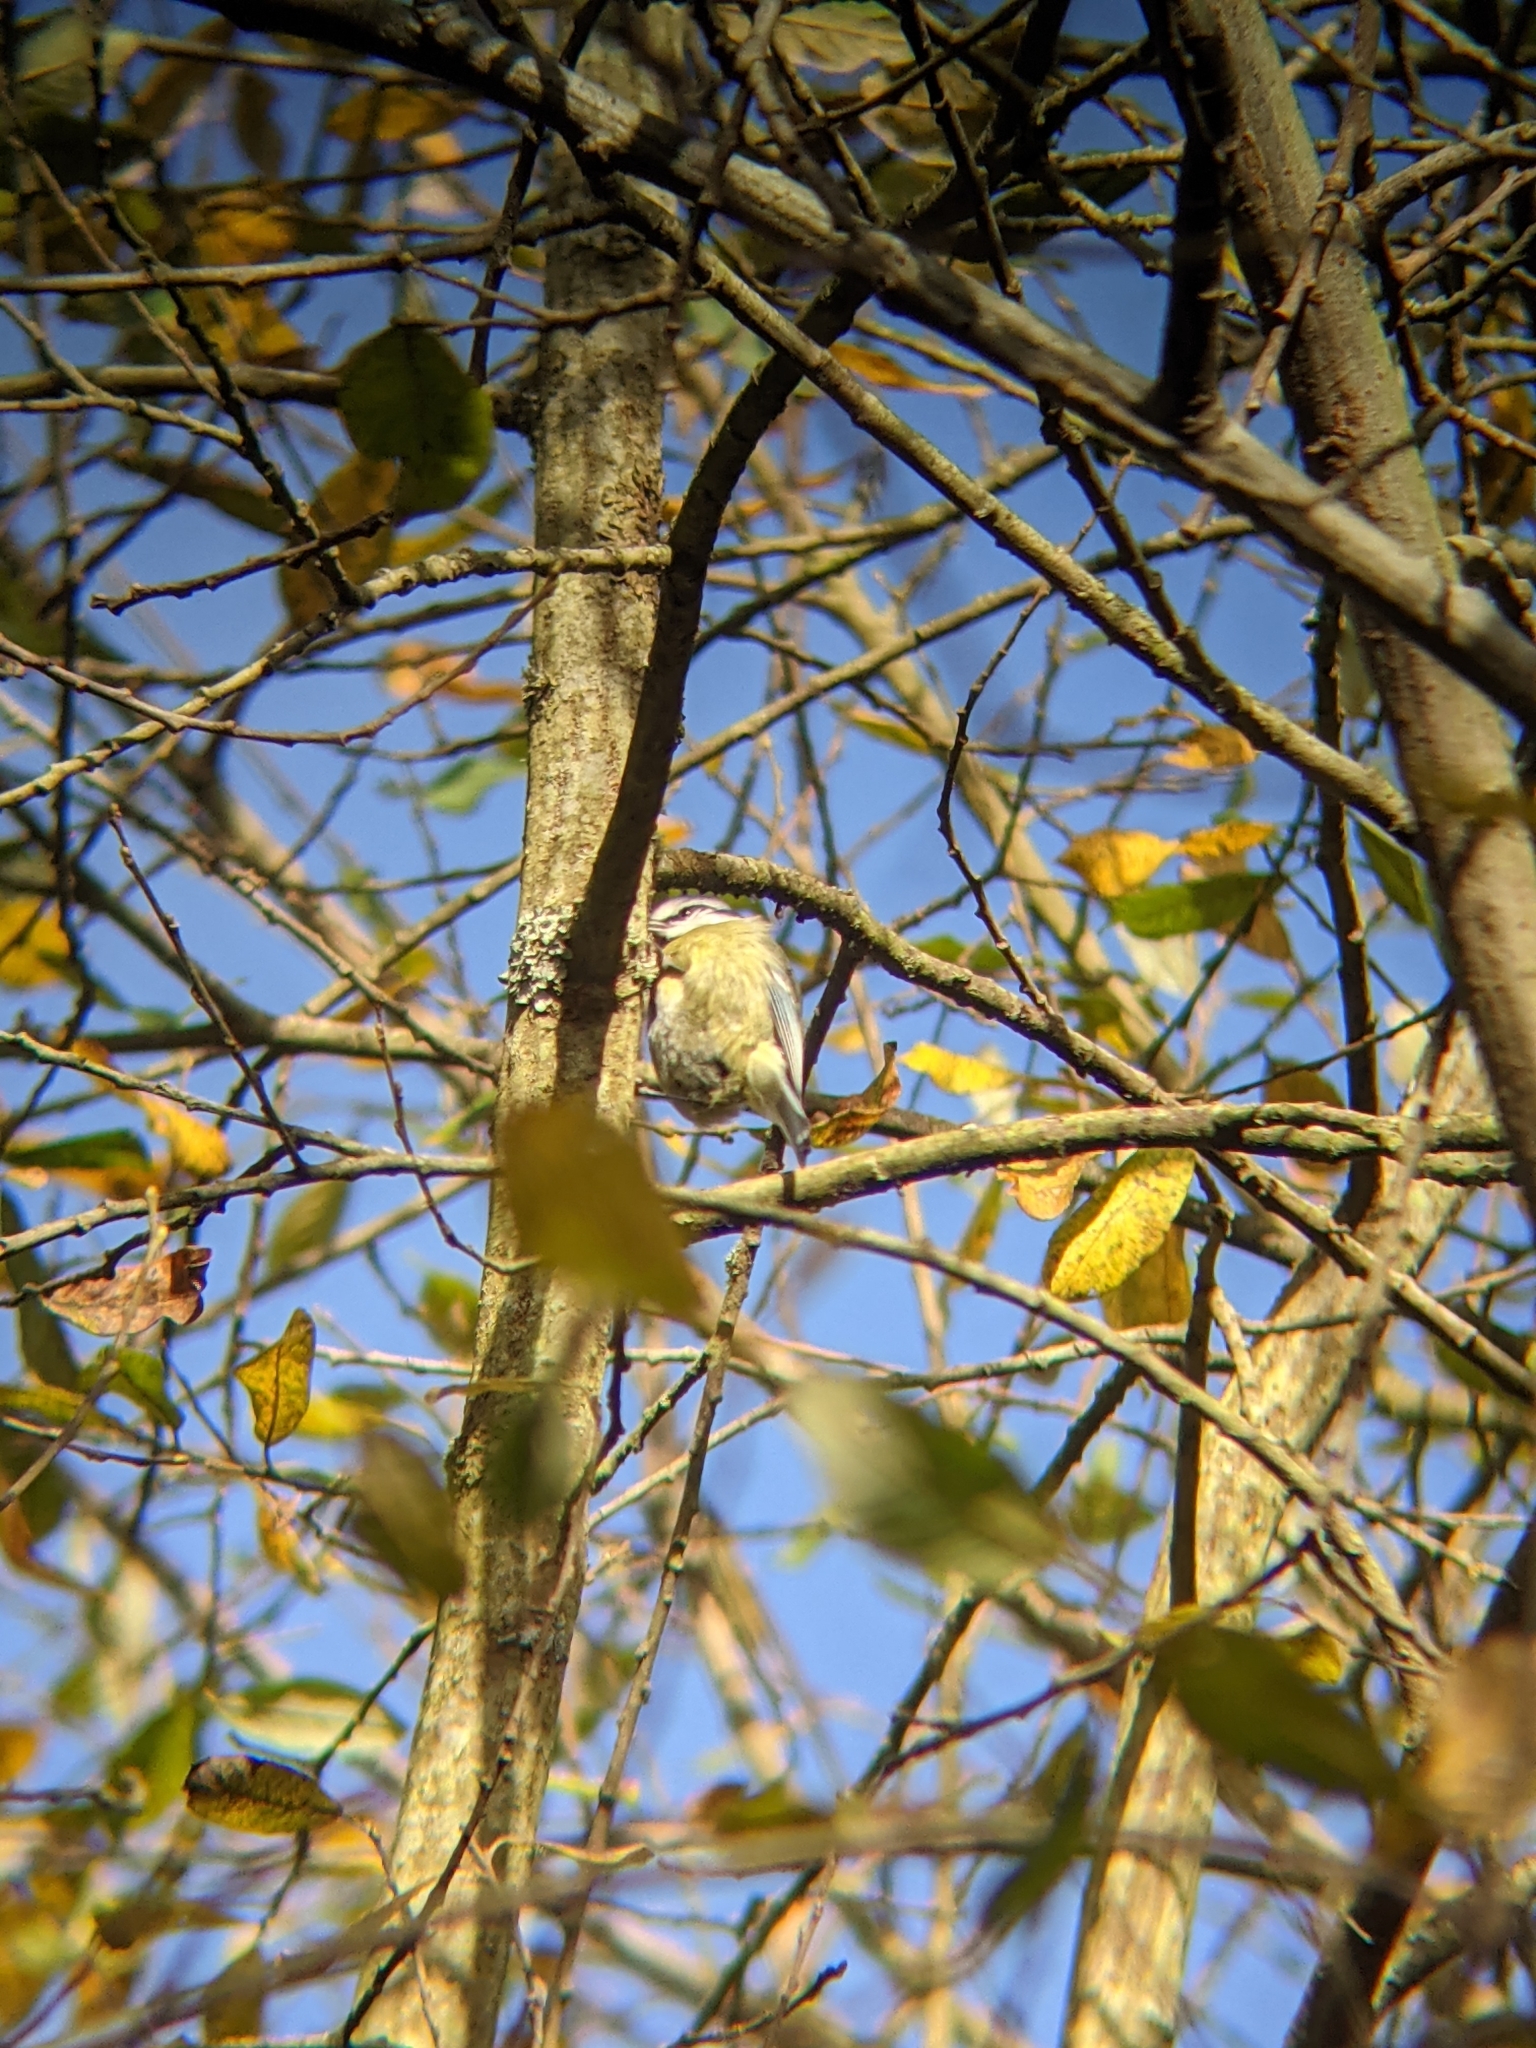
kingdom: Animalia
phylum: Chordata
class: Aves
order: Passeriformes
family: Paridae
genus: Cyanistes
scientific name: Cyanistes caeruleus
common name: Eurasian blue tit
